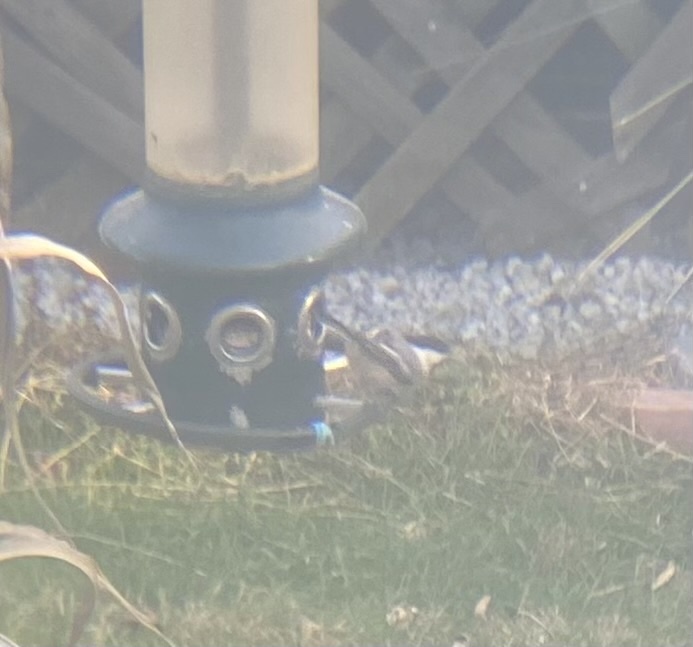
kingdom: Animalia
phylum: Chordata
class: Aves
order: Passeriformes
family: Paridae
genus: Poecile
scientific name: Poecile atricapillus
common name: Black-capped chickadee
